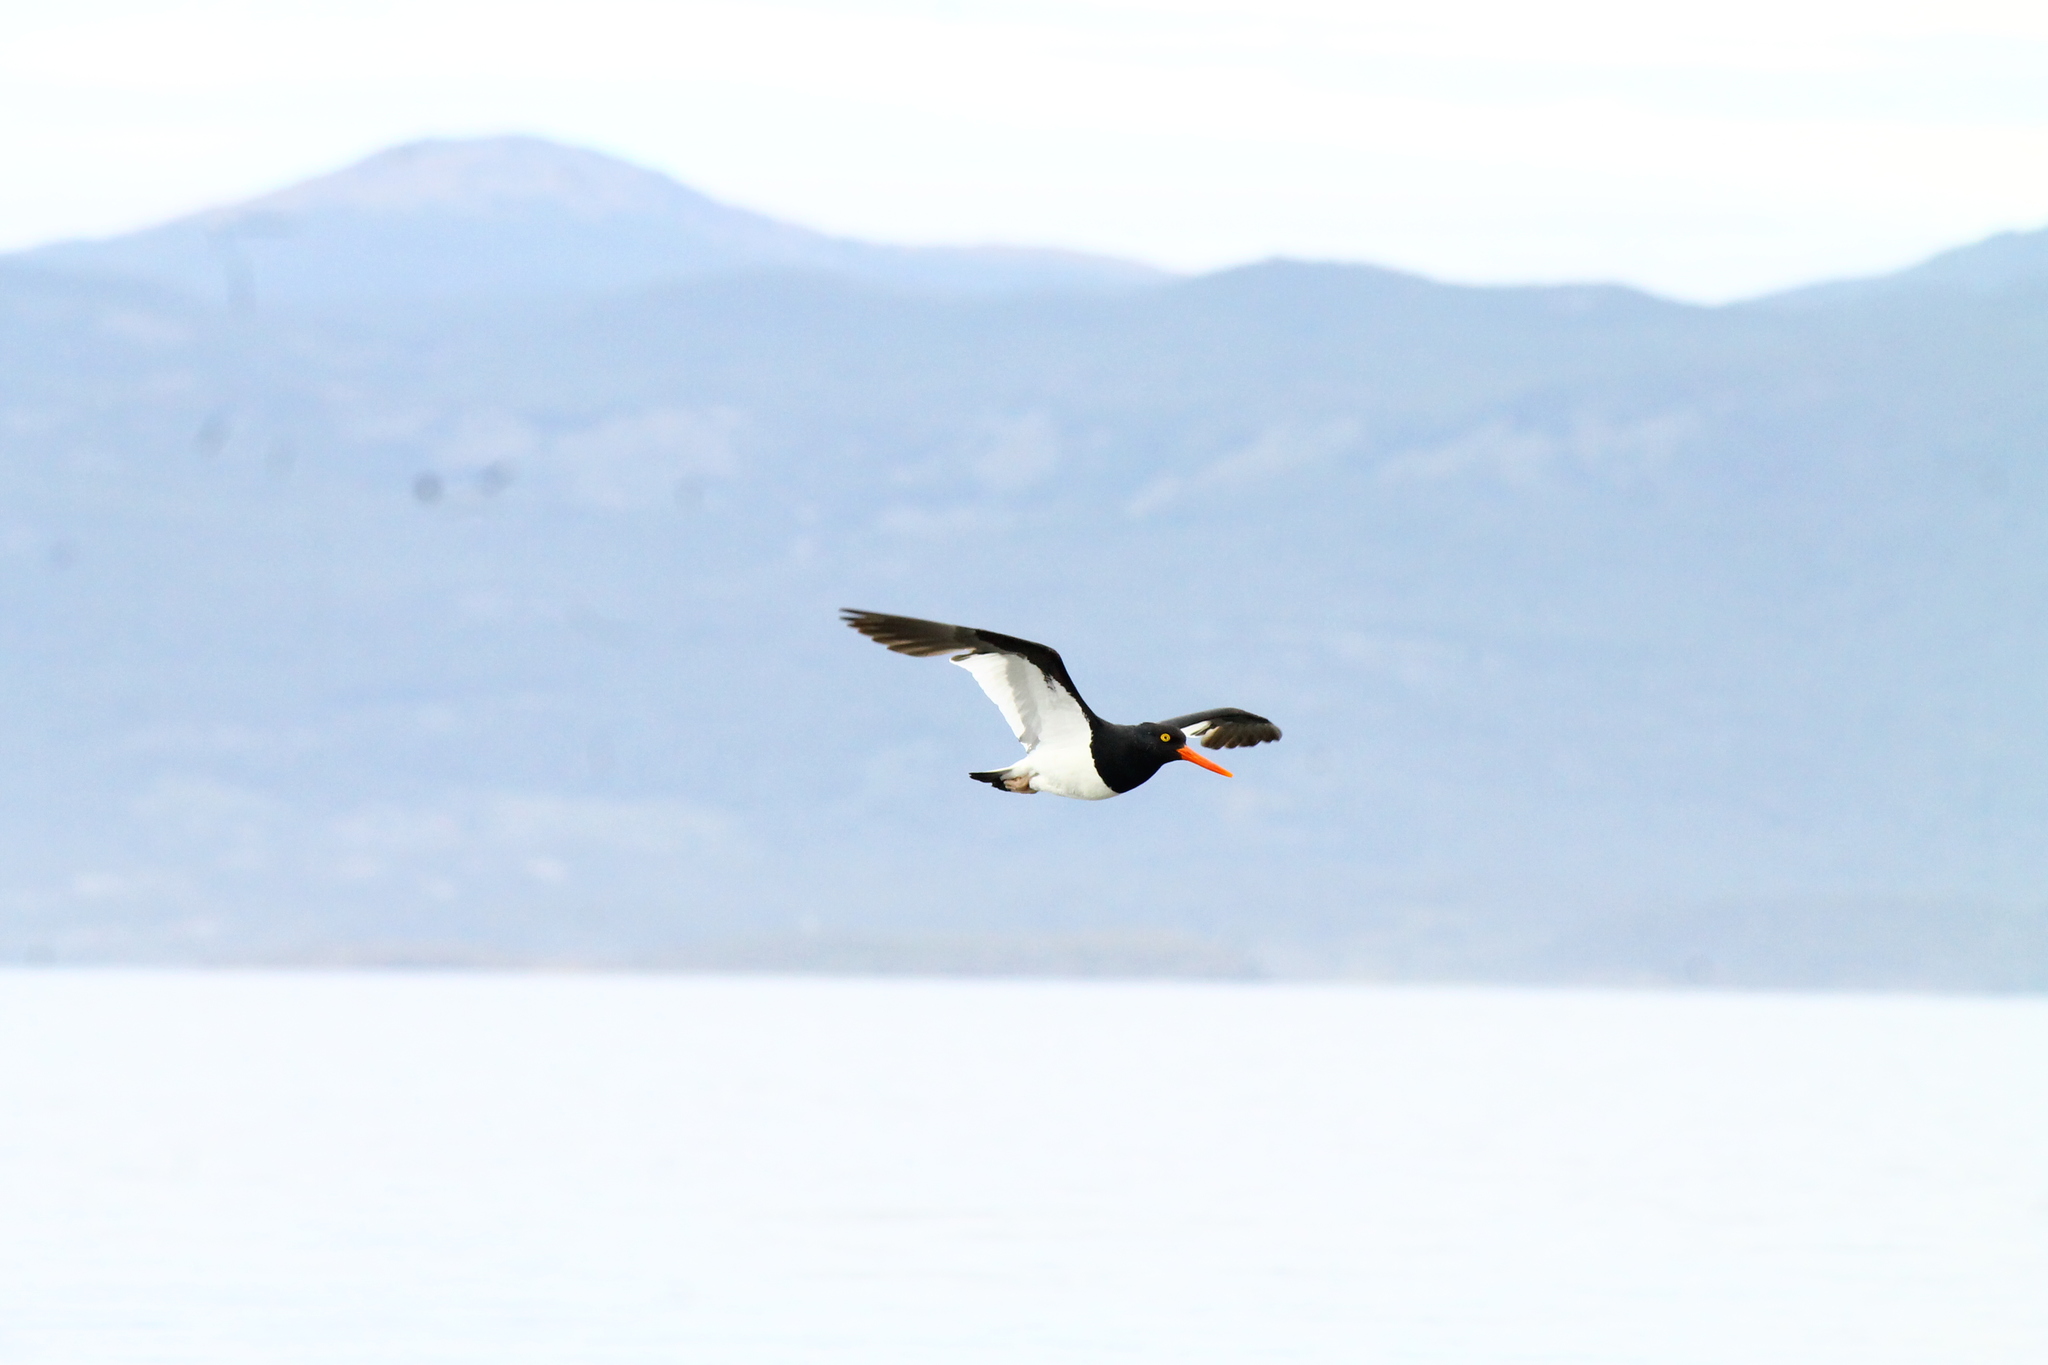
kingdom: Animalia
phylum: Chordata
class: Aves
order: Charadriiformes
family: Haematopodidae
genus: Haematopus
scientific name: Haematopus leucopodus
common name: Magellanic oystercatcher
